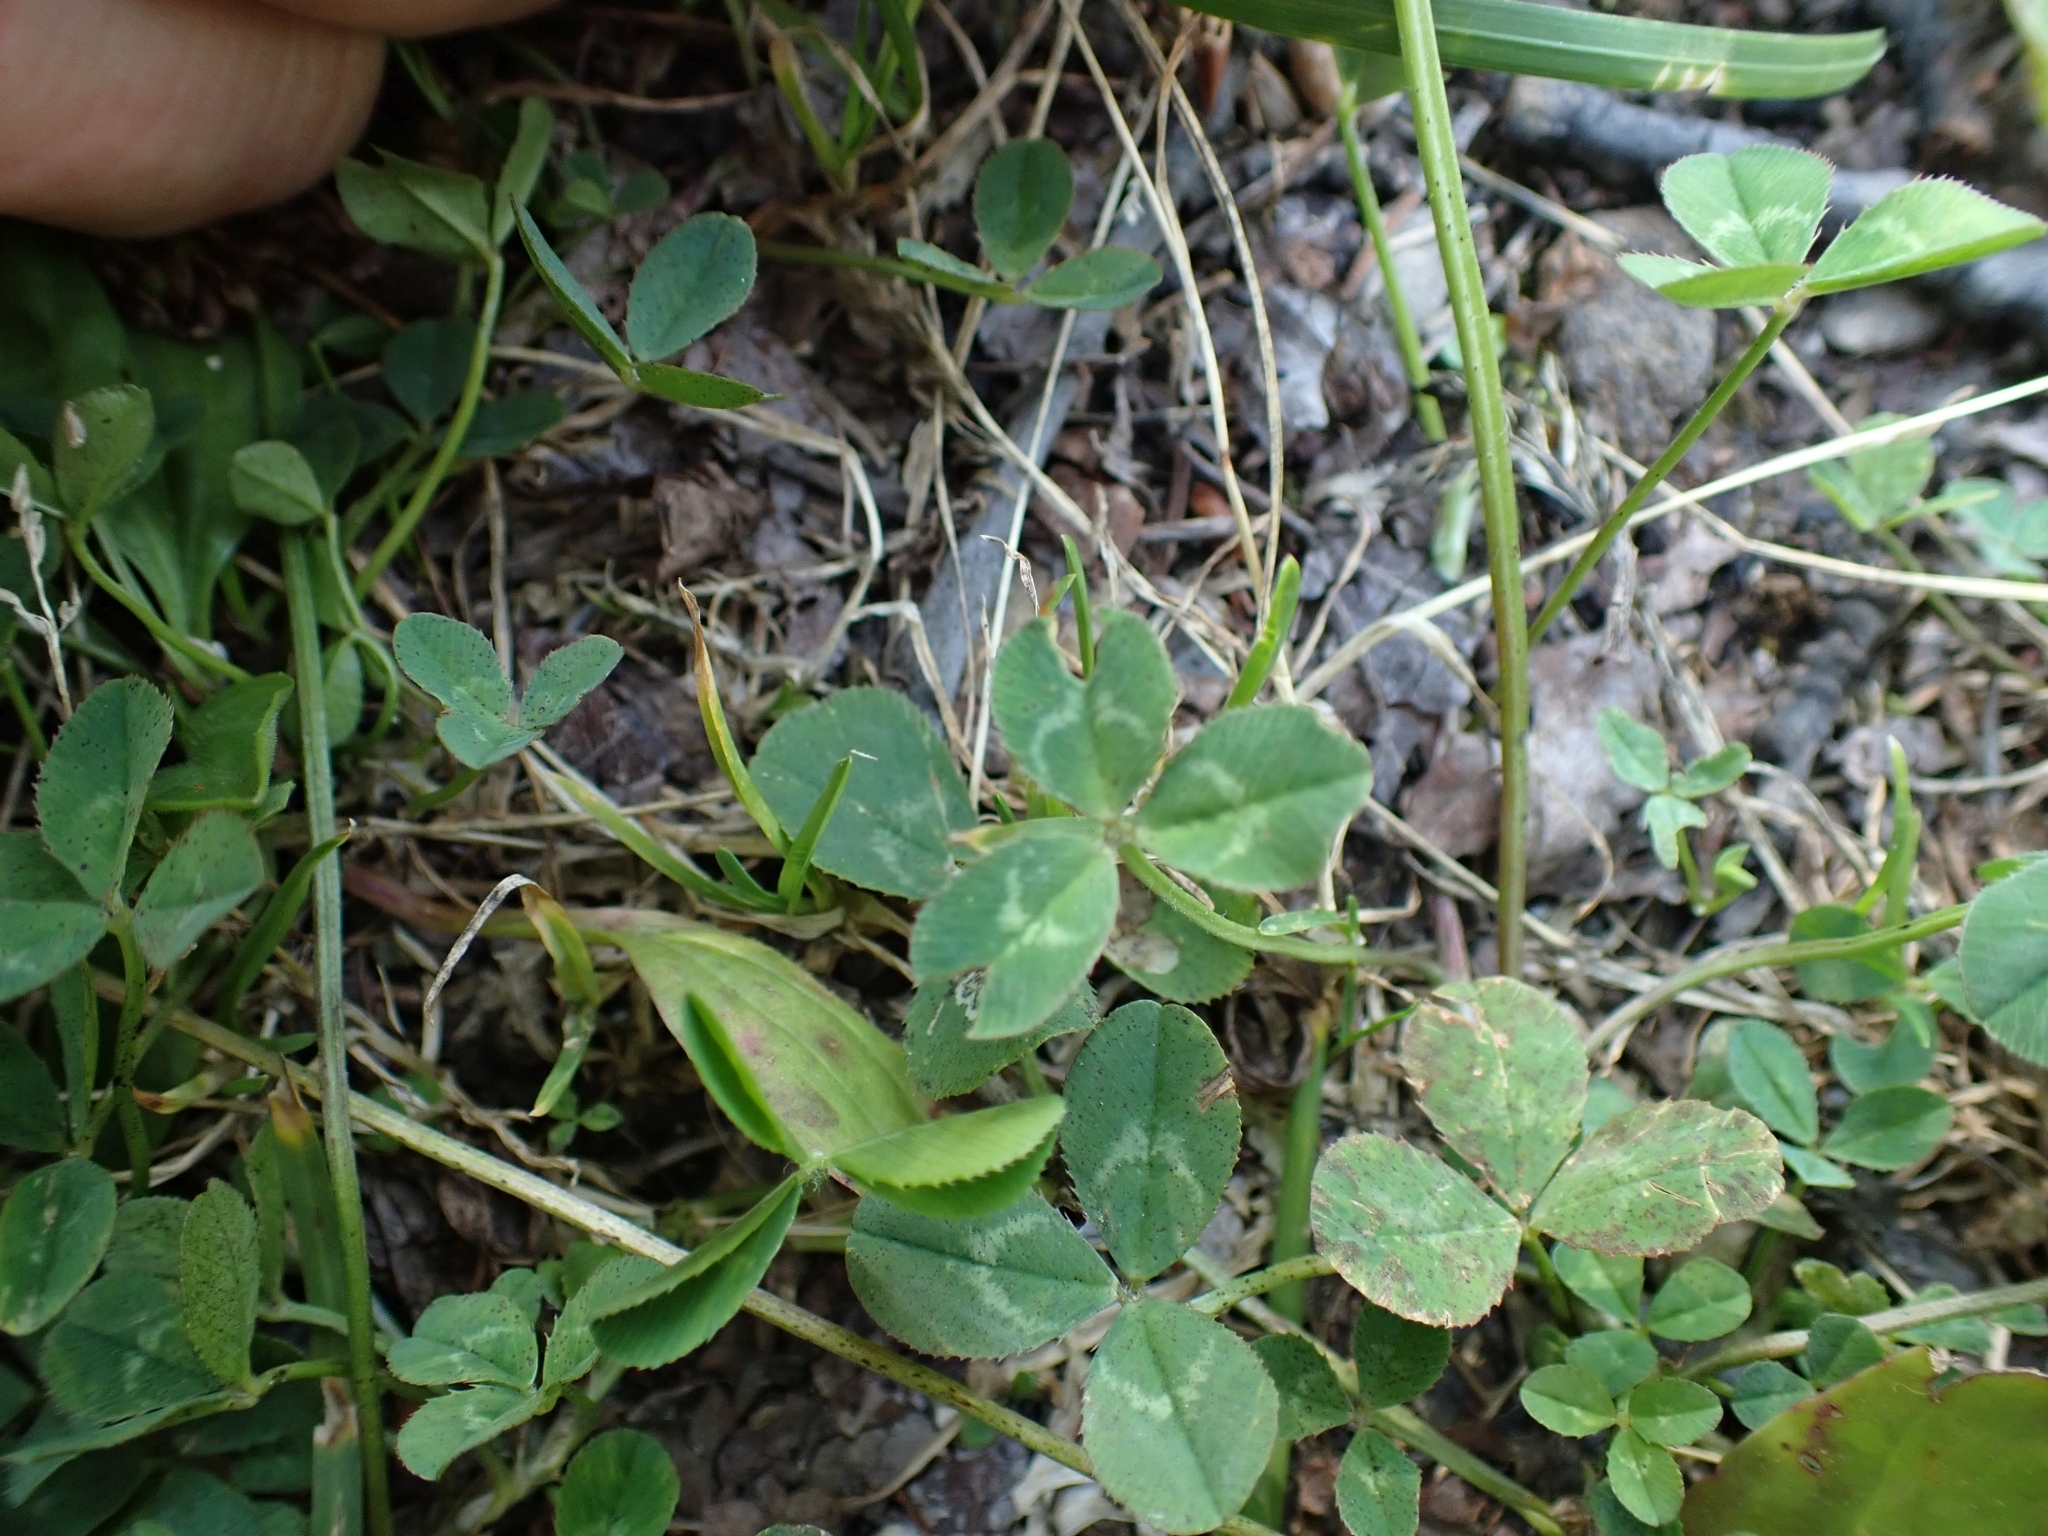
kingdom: Plantae
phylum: Tracheophyta
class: Magnoliopsida
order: Fabales
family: Fabaceae
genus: Trifolium
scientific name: Trifolium repens
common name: White clover
